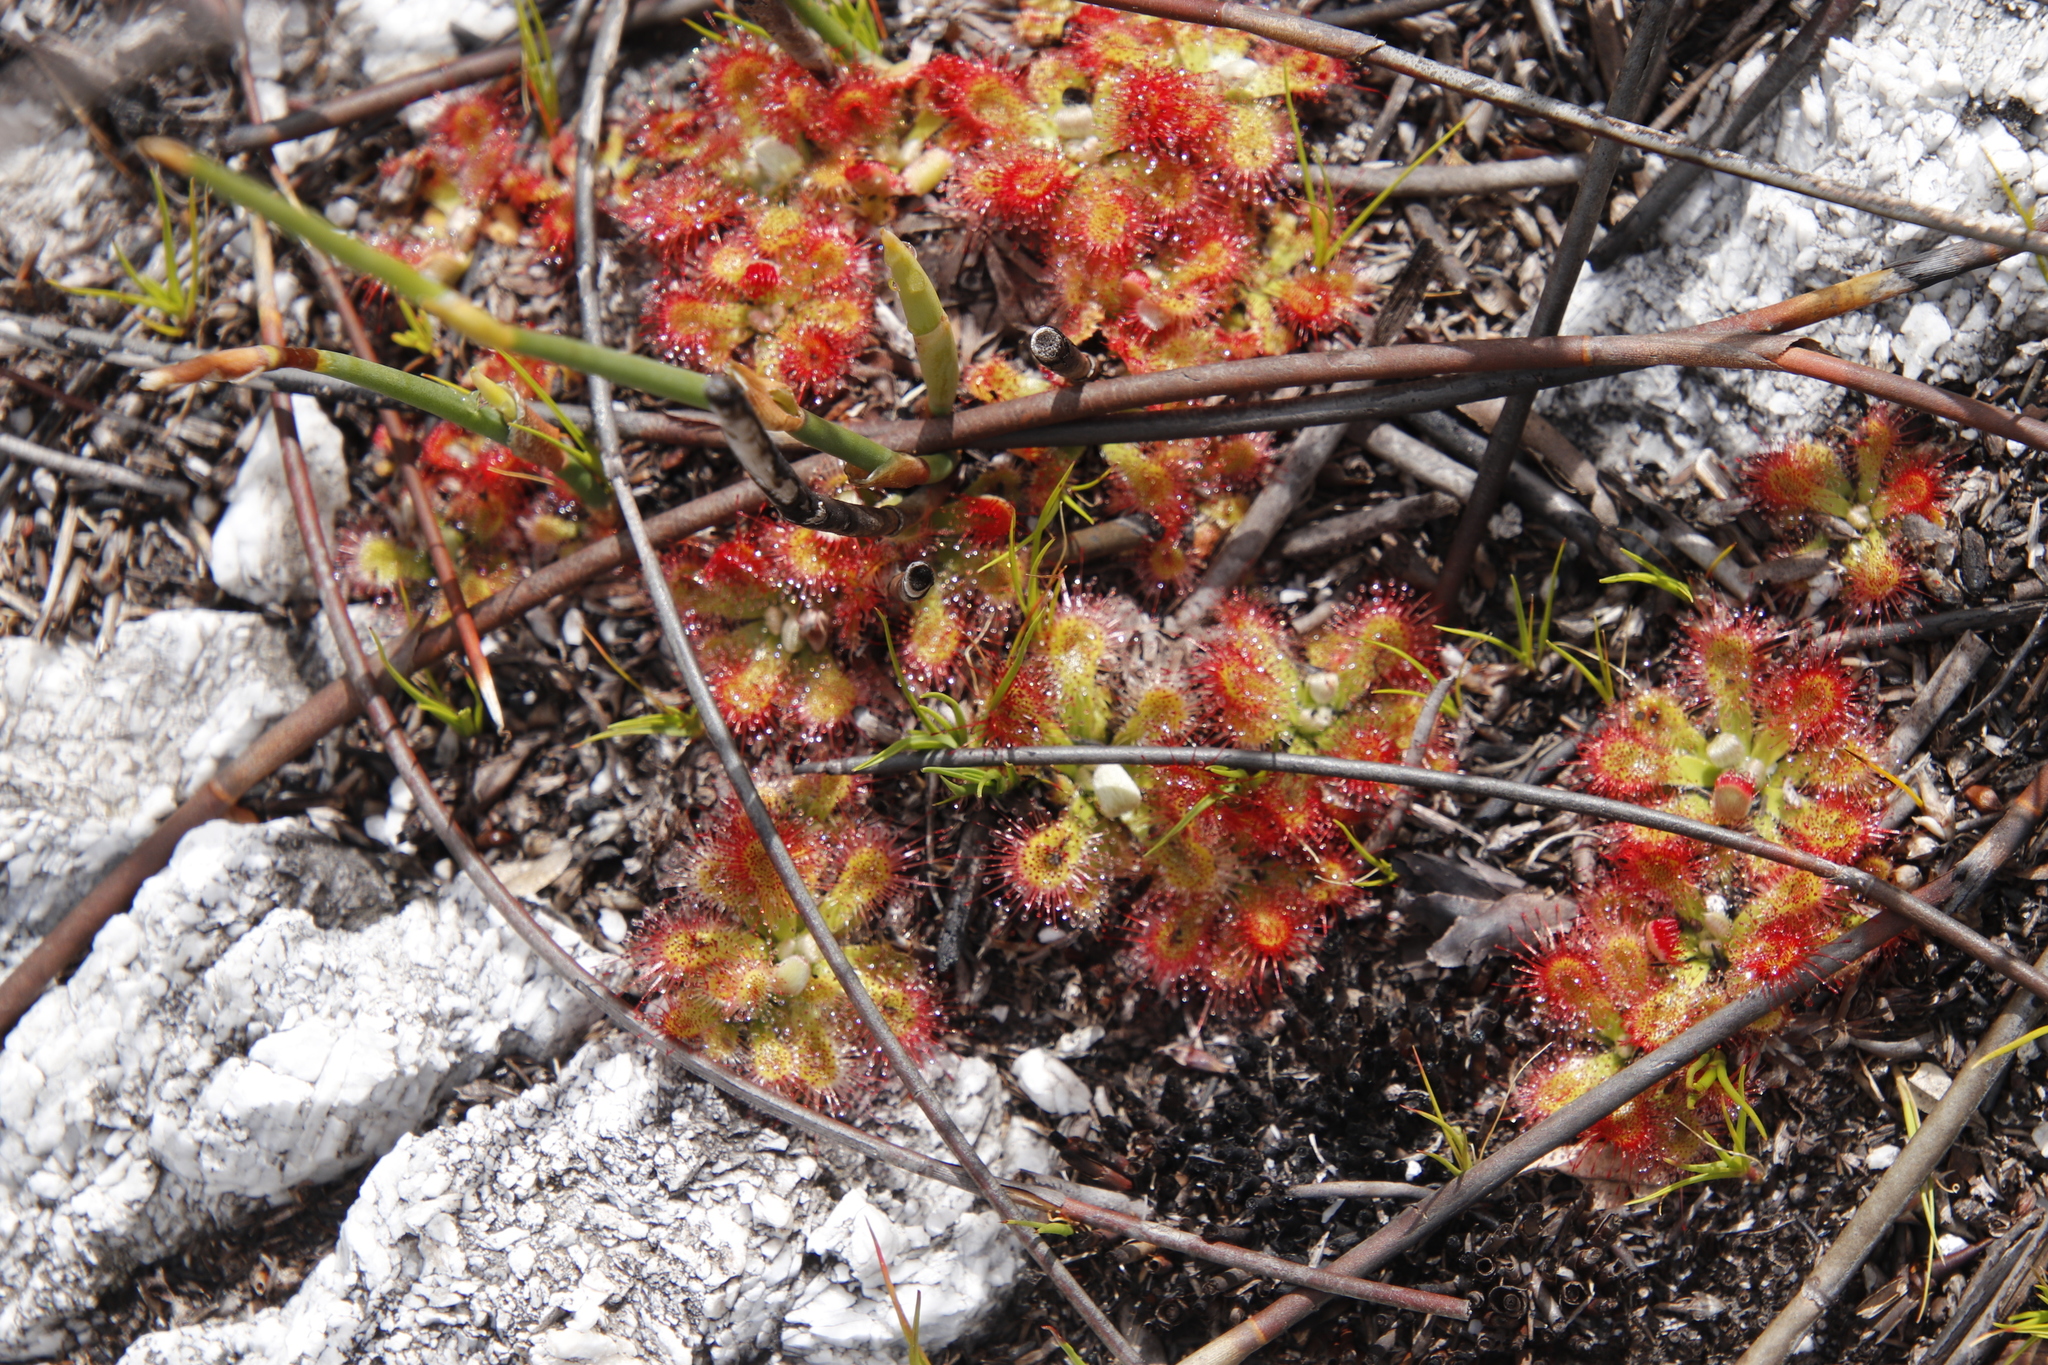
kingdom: Plantae
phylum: Tracheophyta
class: Magnoliopsida
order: Caryophyllales
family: Droseraceae
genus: Drosera
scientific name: Drosera aliciae
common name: Alice sundew
